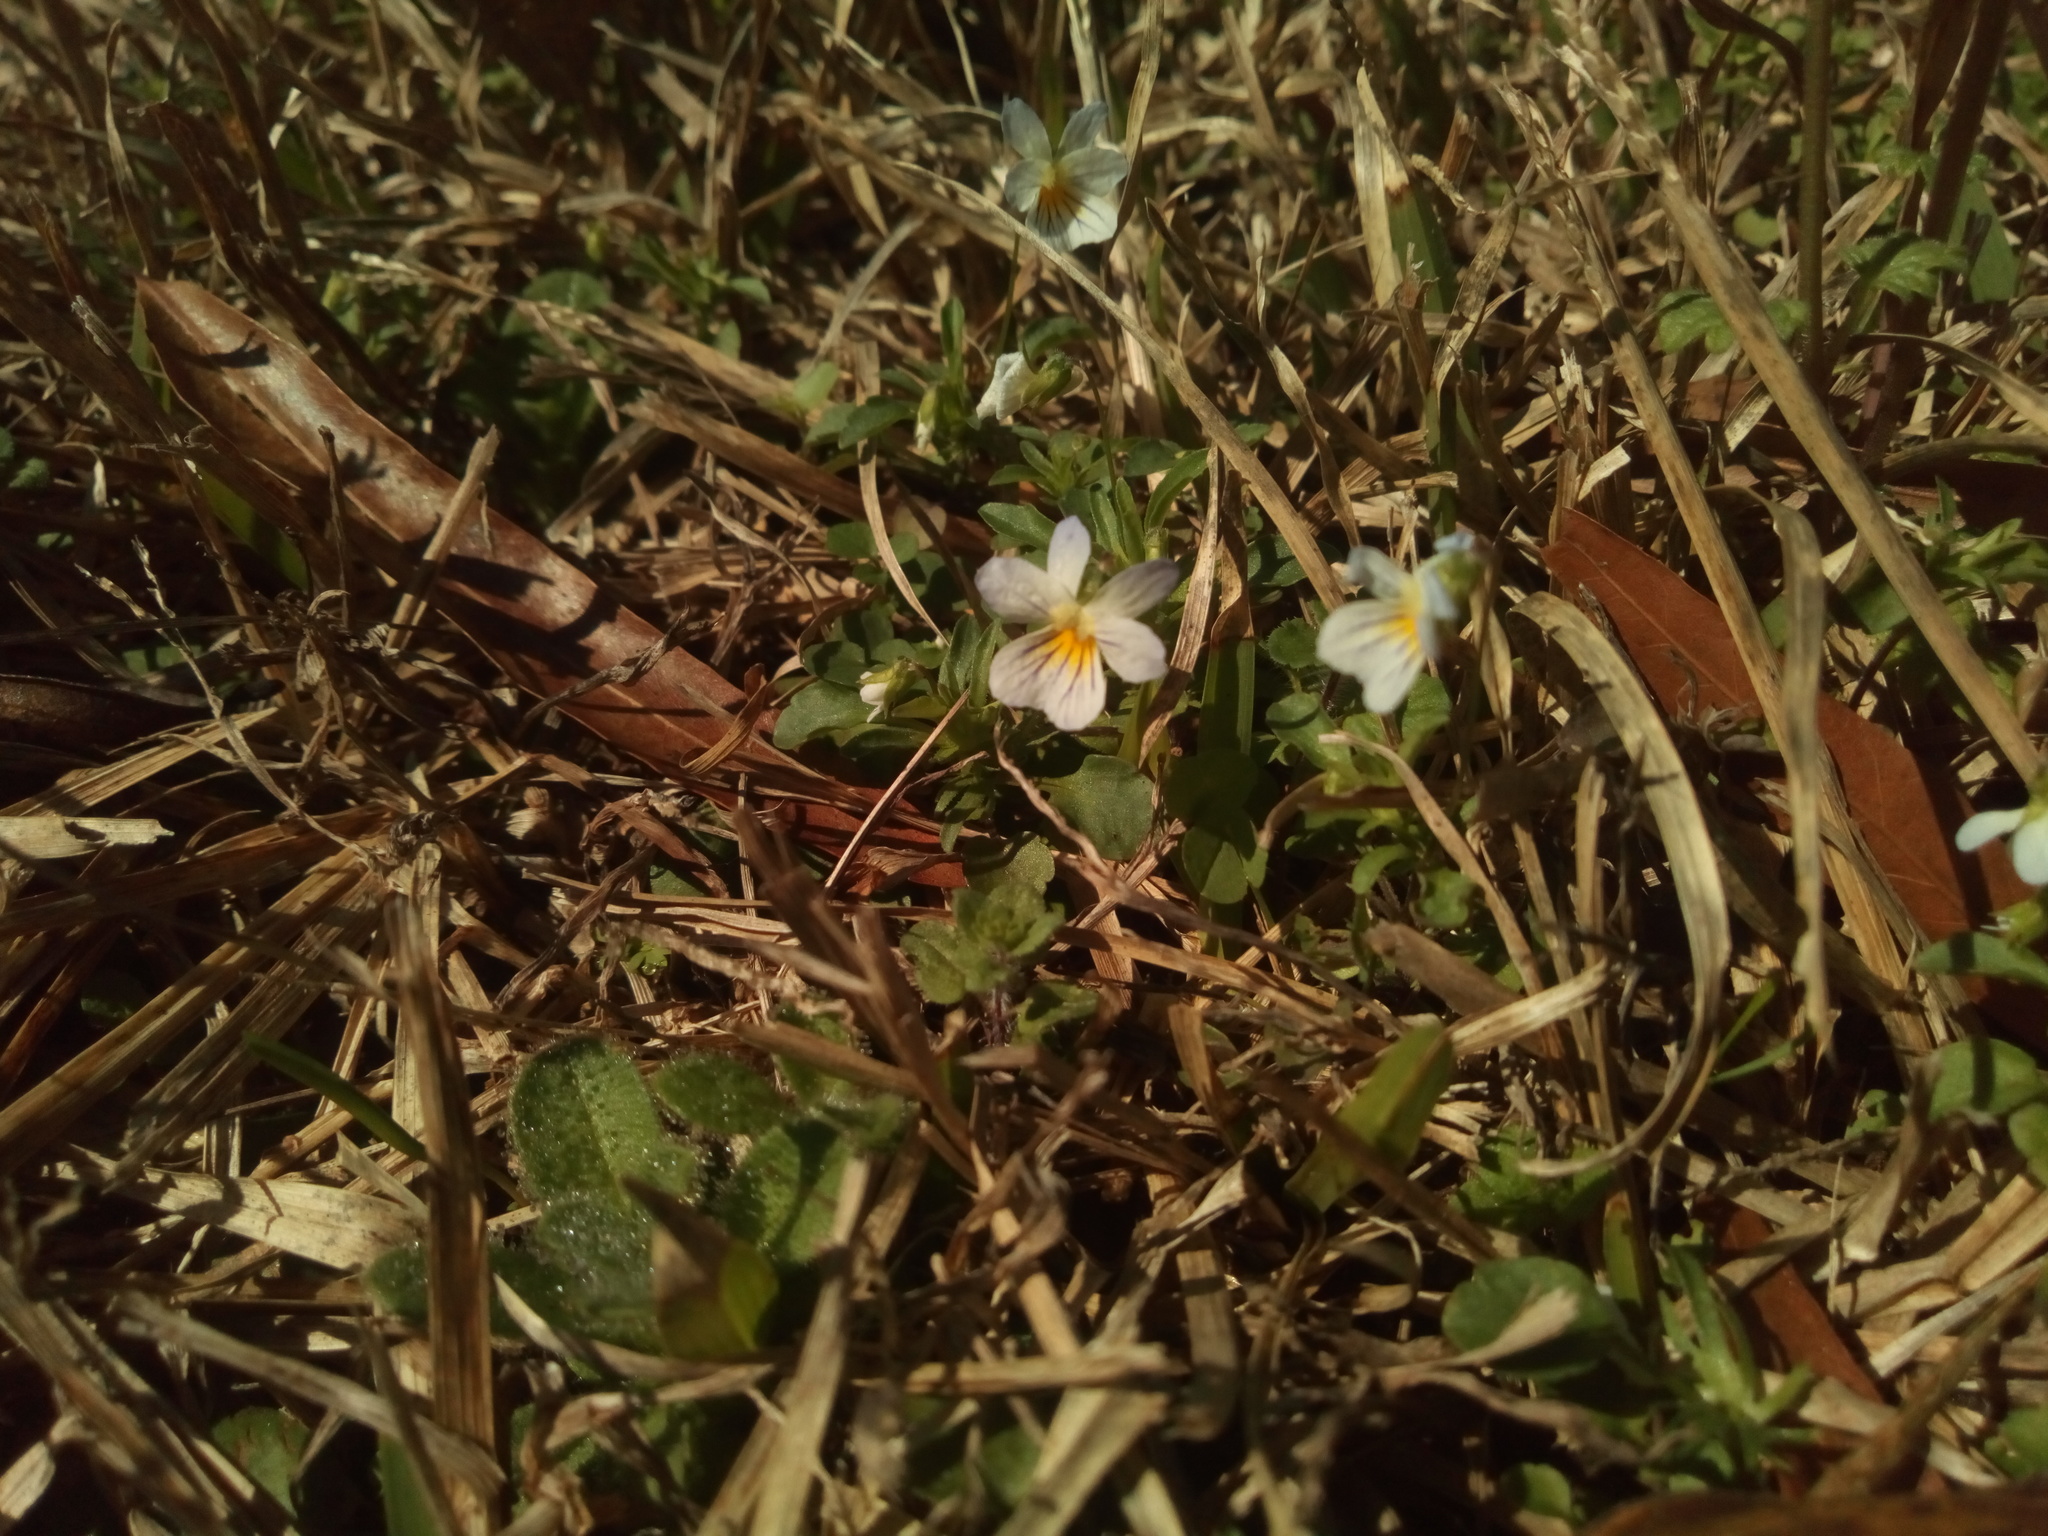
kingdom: Plantae
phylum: Tracheophyta
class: Magnoliopsida
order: Malpighiales
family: Violaceae
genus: Viola
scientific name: Viola rafinesquei
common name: American field pansy
